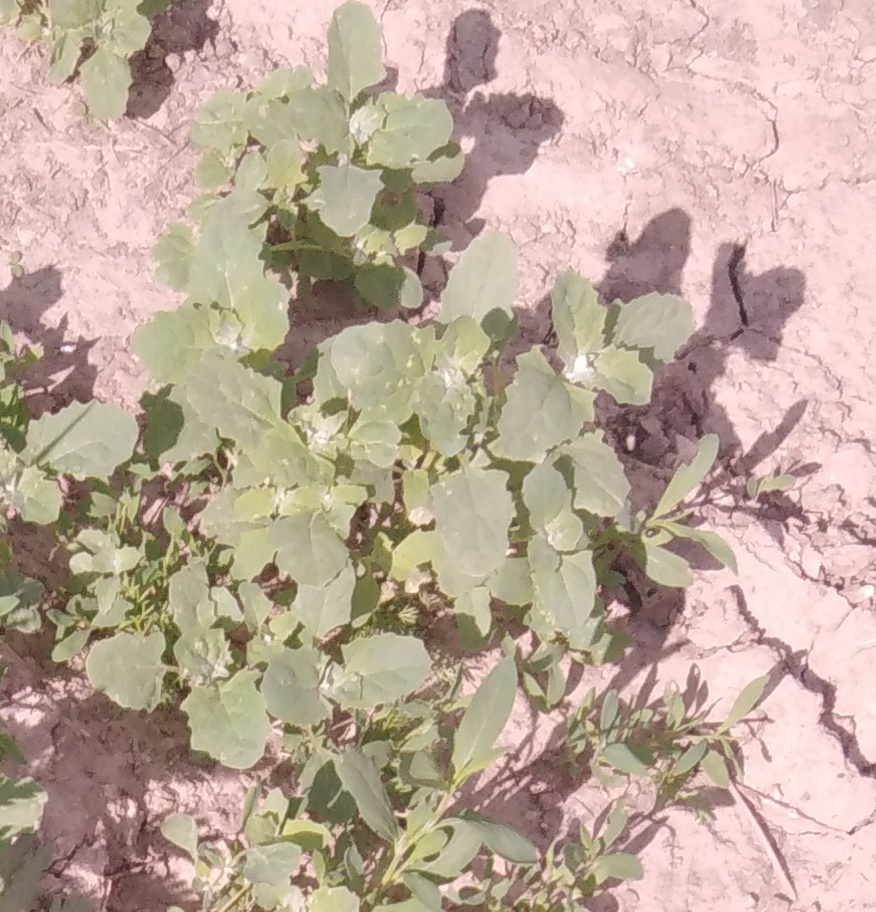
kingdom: Plantae
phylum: Tracheophyta
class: Magnoliopsida
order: Caryophyllales
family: Amaranthaceae
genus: Atriplex
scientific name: Atriplex tatarica
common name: Tatarian orache
